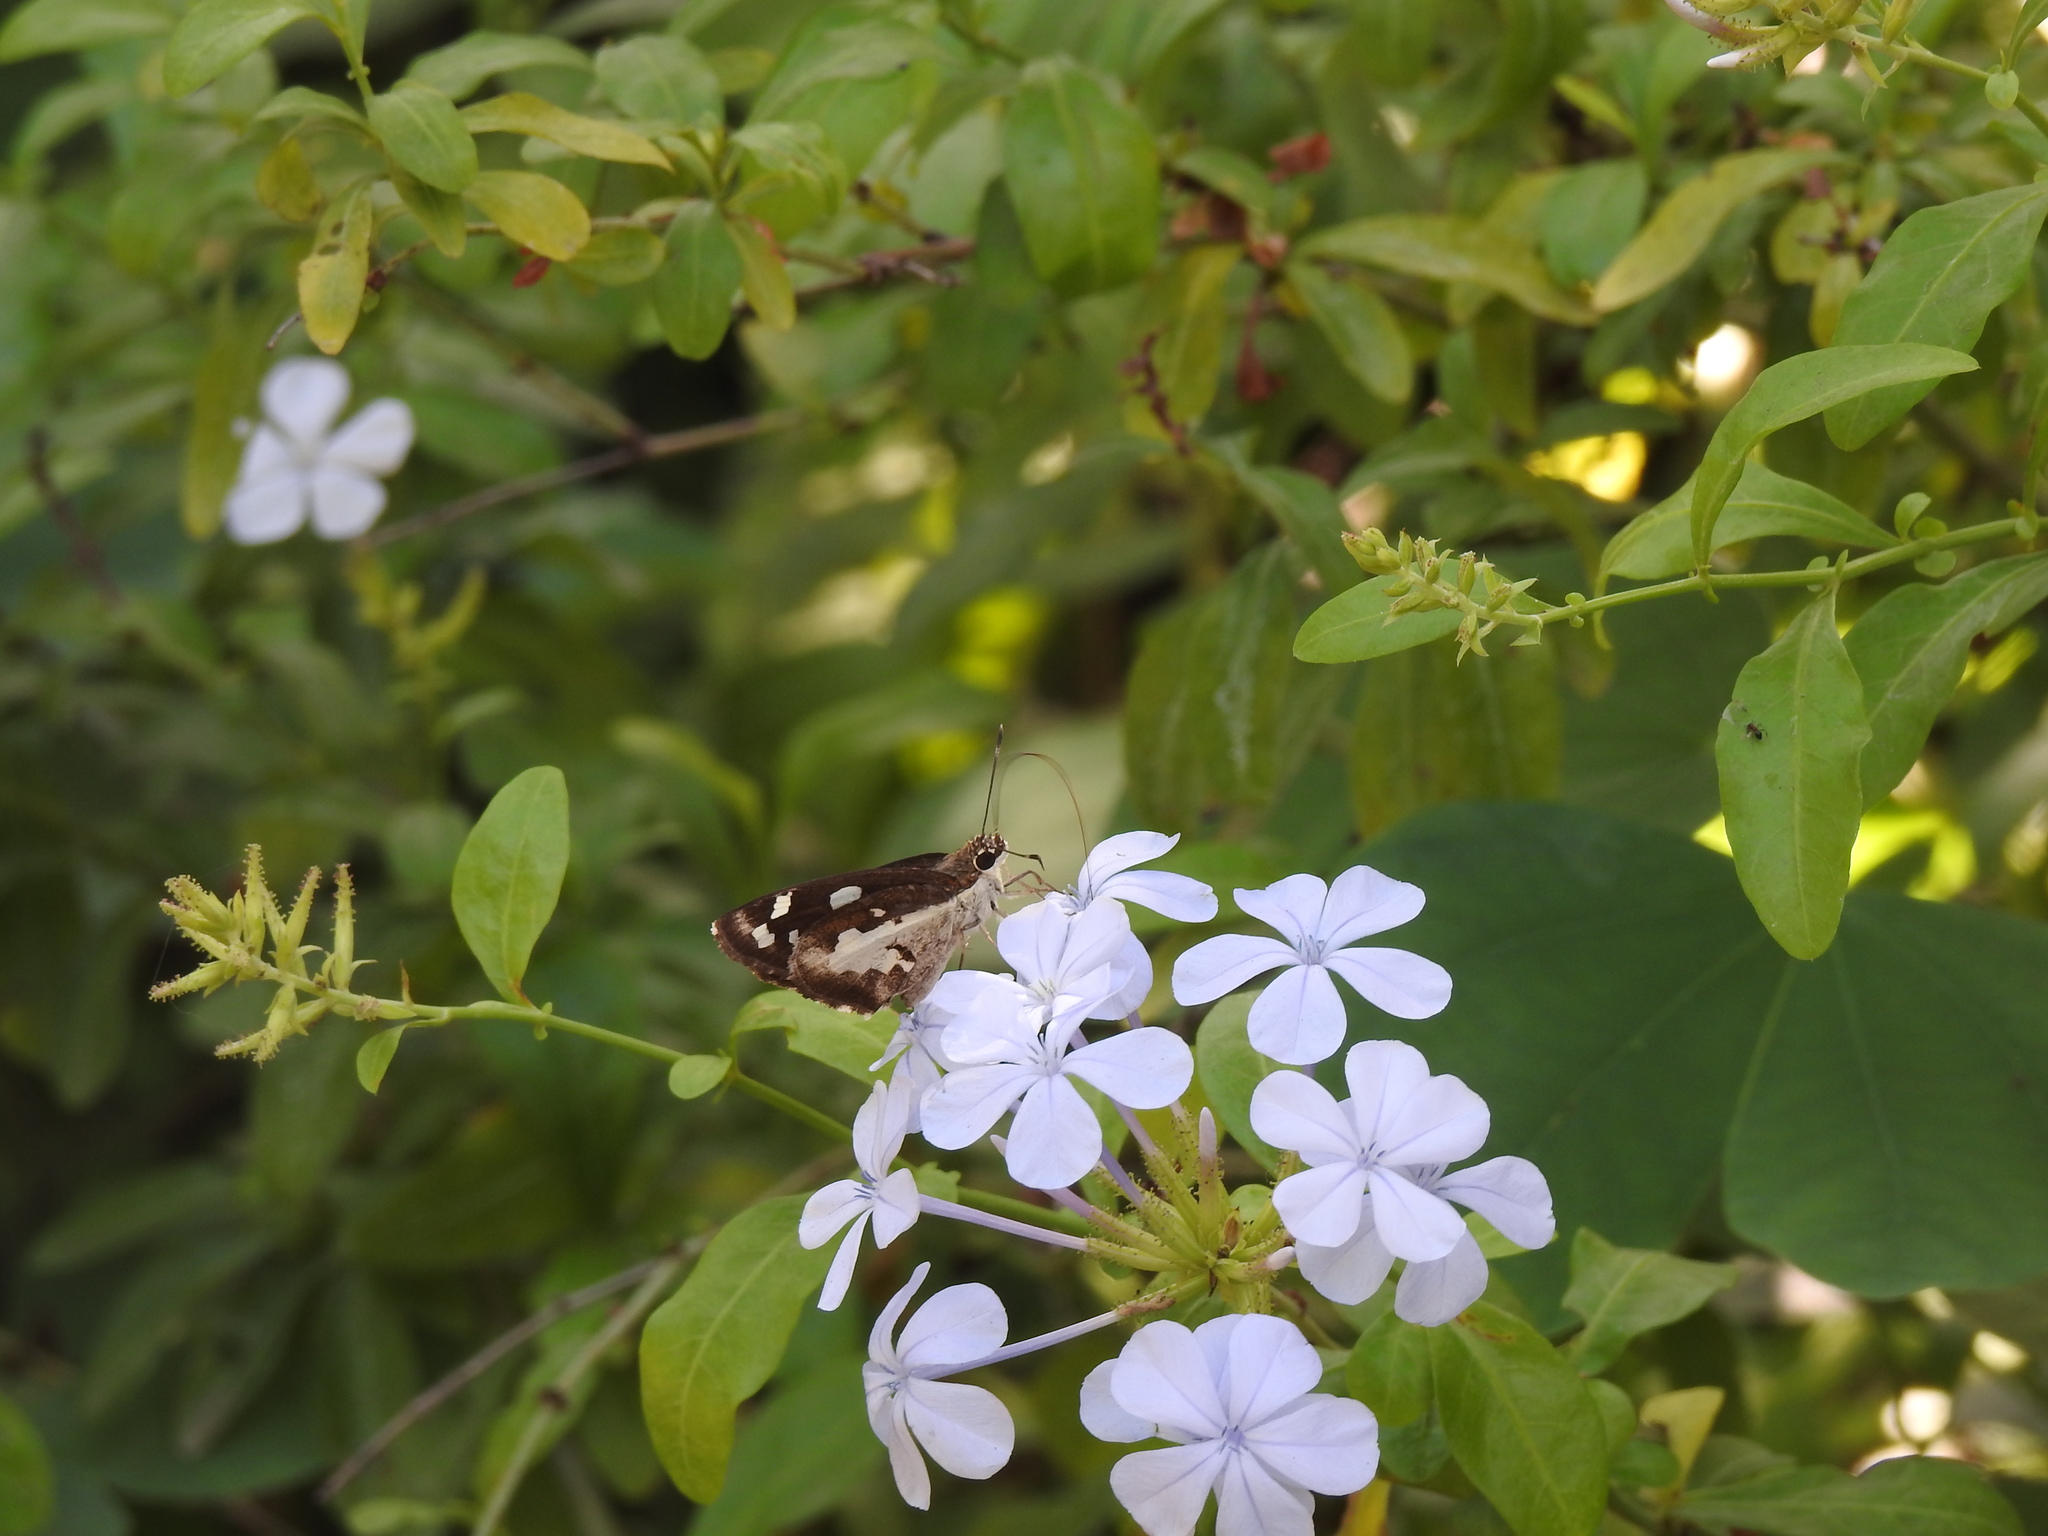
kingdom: Animalia
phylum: Arthropoda
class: Insecta
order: Lepidoptera
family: Hesperiidae
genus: Udaspes
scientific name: Udaspes folus
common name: Grass demon
